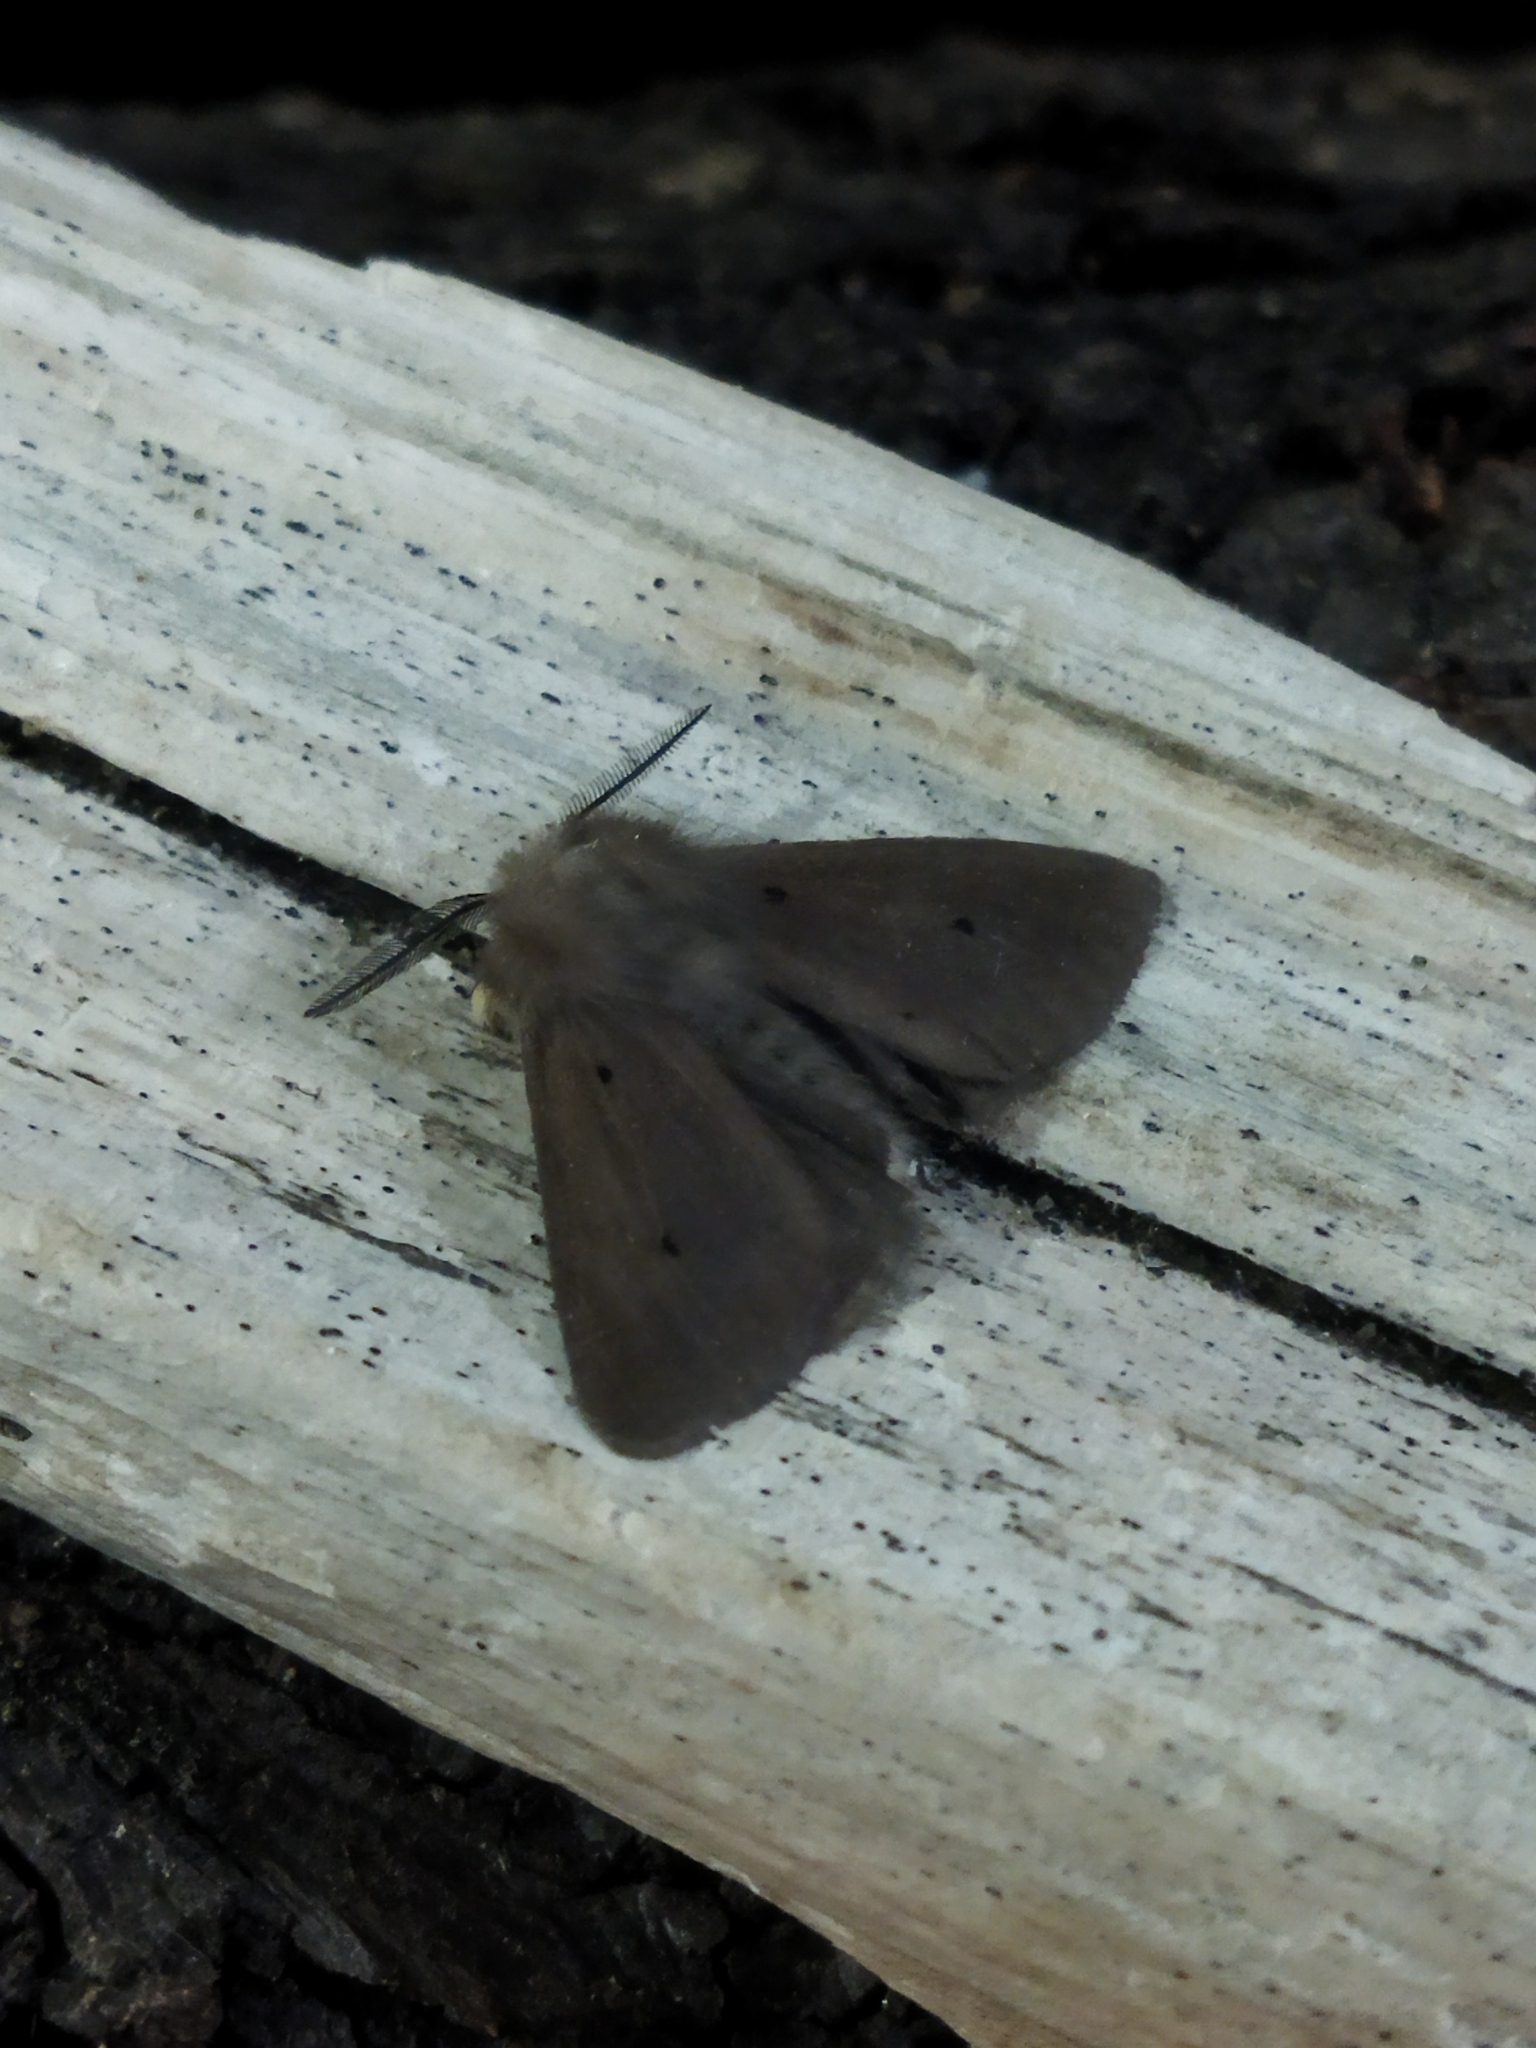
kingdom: Animalia
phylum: Arthropoda
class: Insecta
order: Lepidoptera
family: Erebidae
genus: Diaphora
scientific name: Diaphora mendica
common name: Muslin moth
